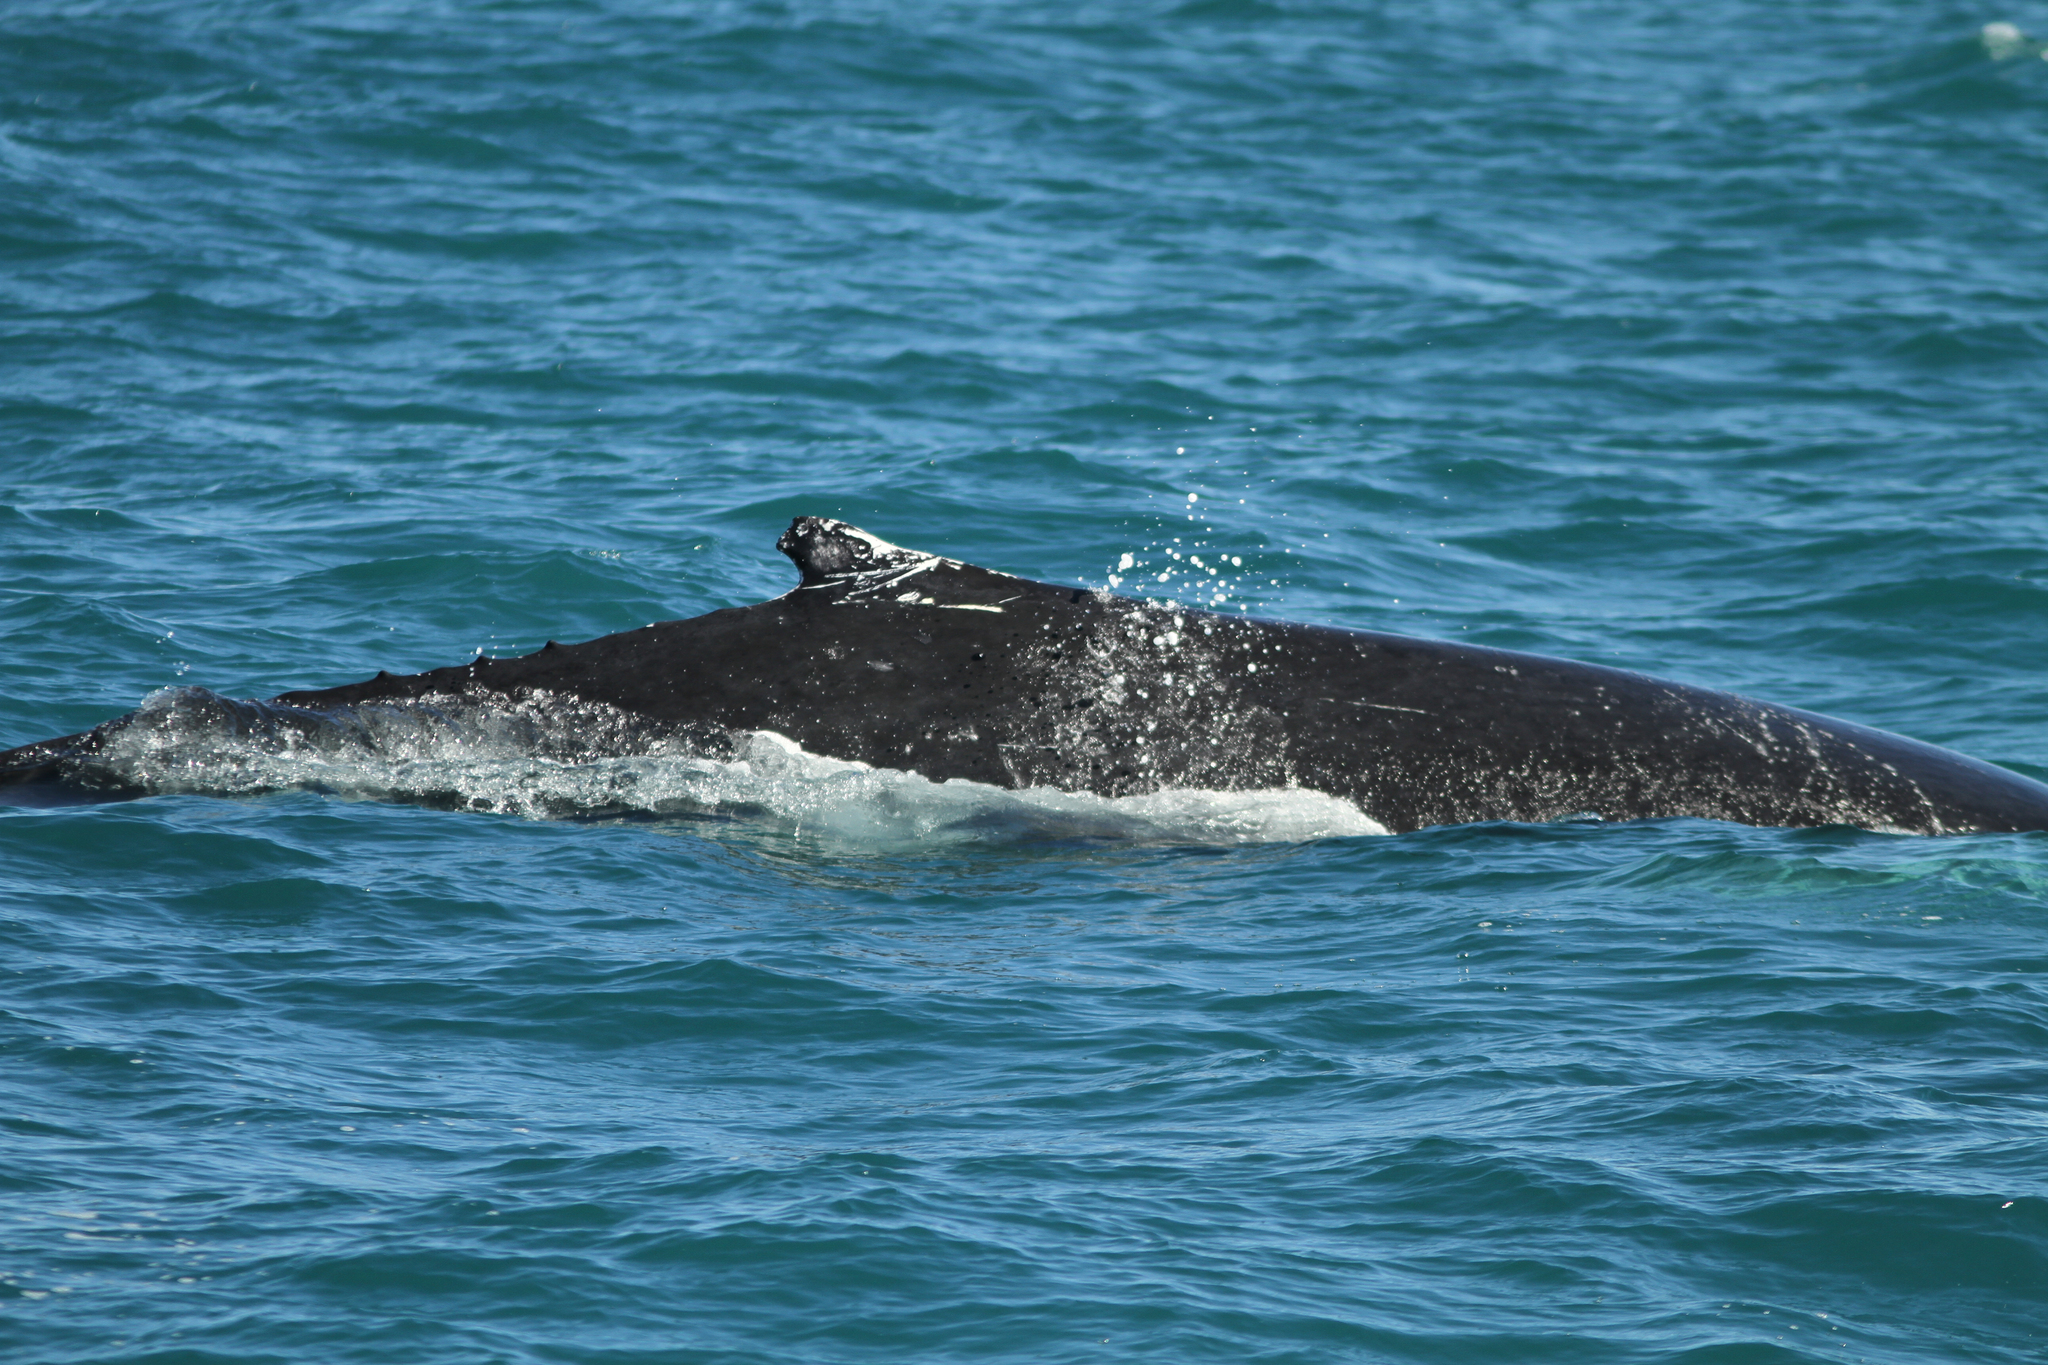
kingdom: Animalia
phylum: Chordata
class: Mammalia
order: Cetacea
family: Balaenopteridae
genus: Megaptera
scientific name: Megaptera novaeangliae
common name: Humpback whale
